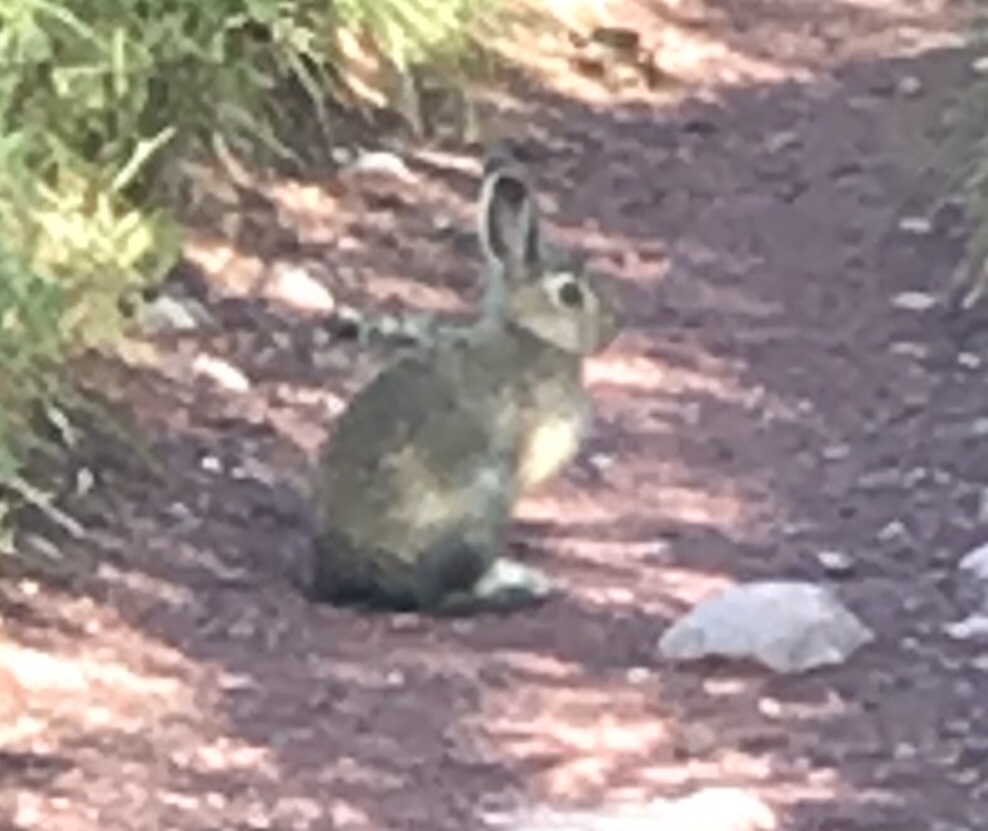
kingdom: Animalia
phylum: Chordata
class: Mammalia
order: Lagomorpha
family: Leporidae
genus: Lepus
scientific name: Lepus americanus
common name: Snowshoe hare
